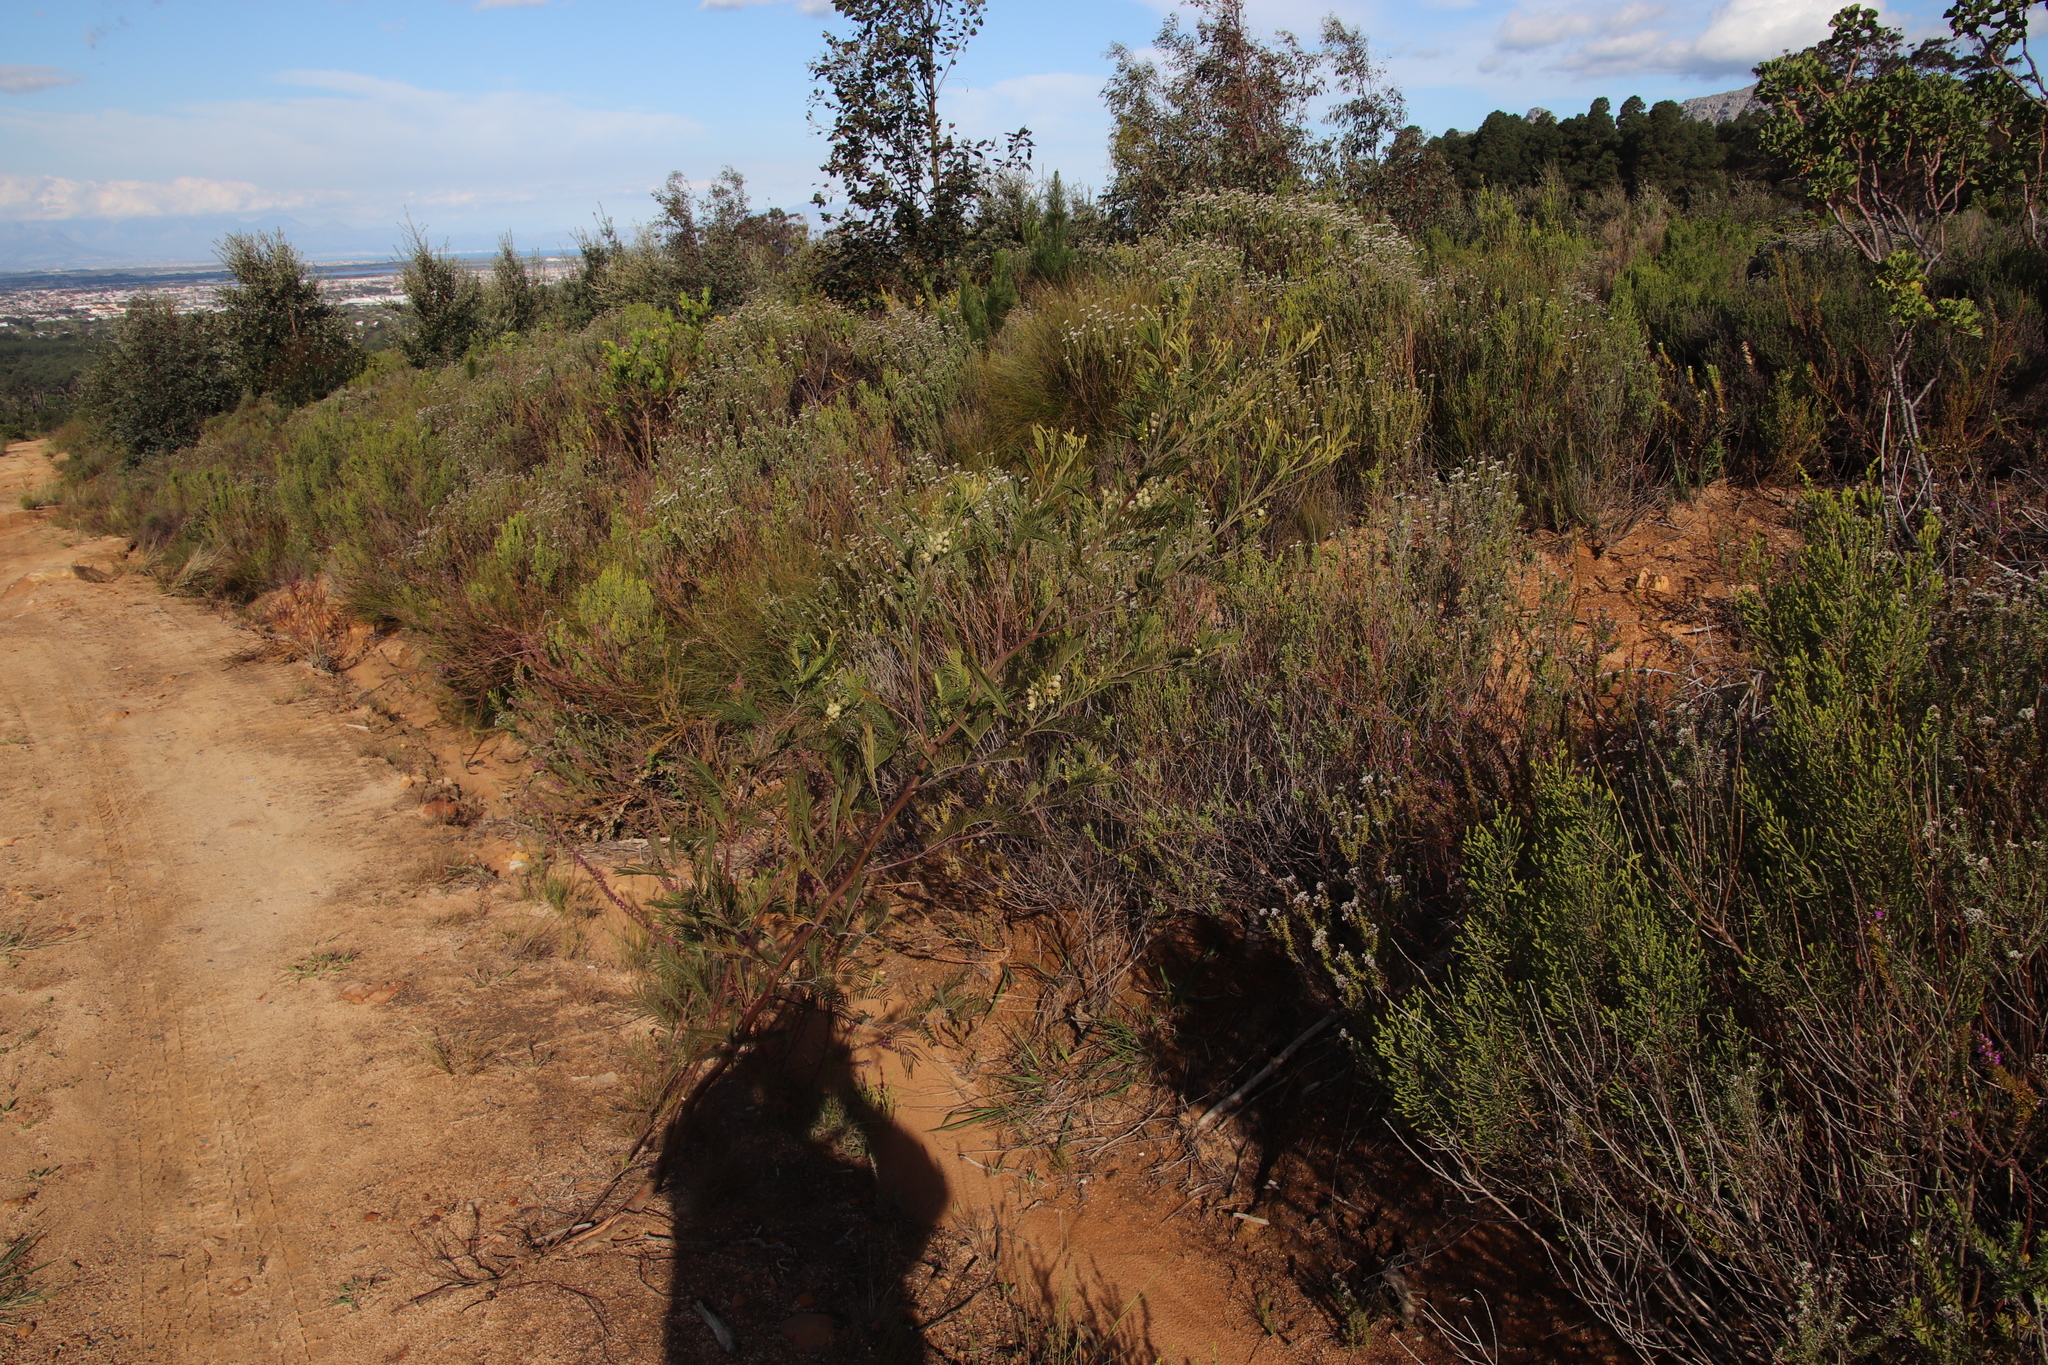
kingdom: Plantae
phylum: Tracheophyta
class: Magnoliopsida
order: Fabales
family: Fabaceae
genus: Acacia
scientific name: Acacia mearnsii
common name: Black wattle
